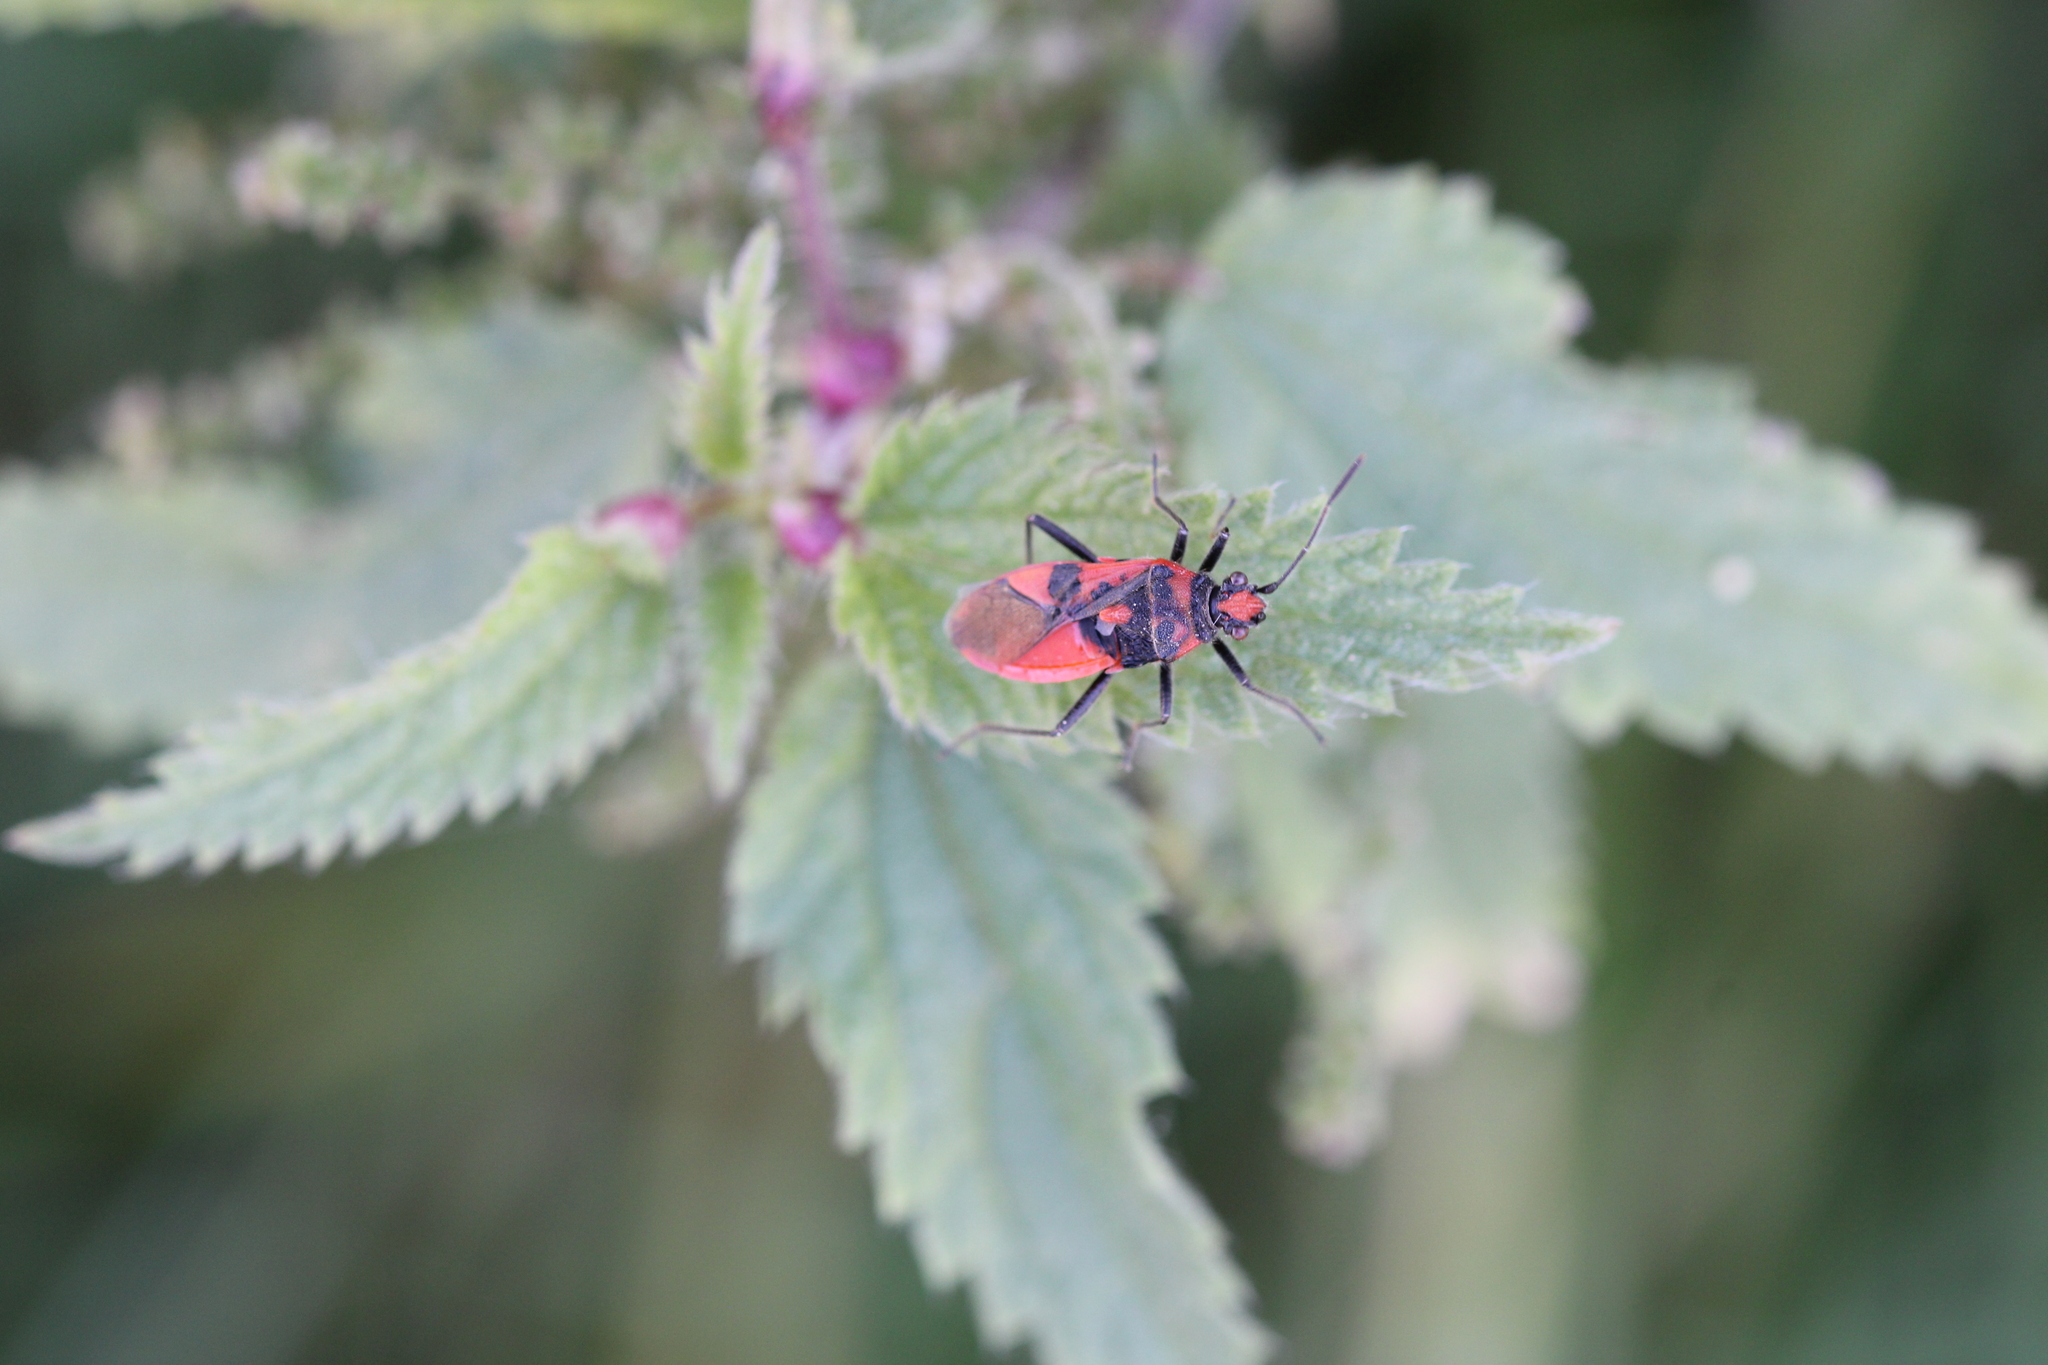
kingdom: Animalia
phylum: Arthropoda
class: Insecta
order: Hemiptera
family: Rhopalidae
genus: Corizus
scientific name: Corizus hyoscyami
